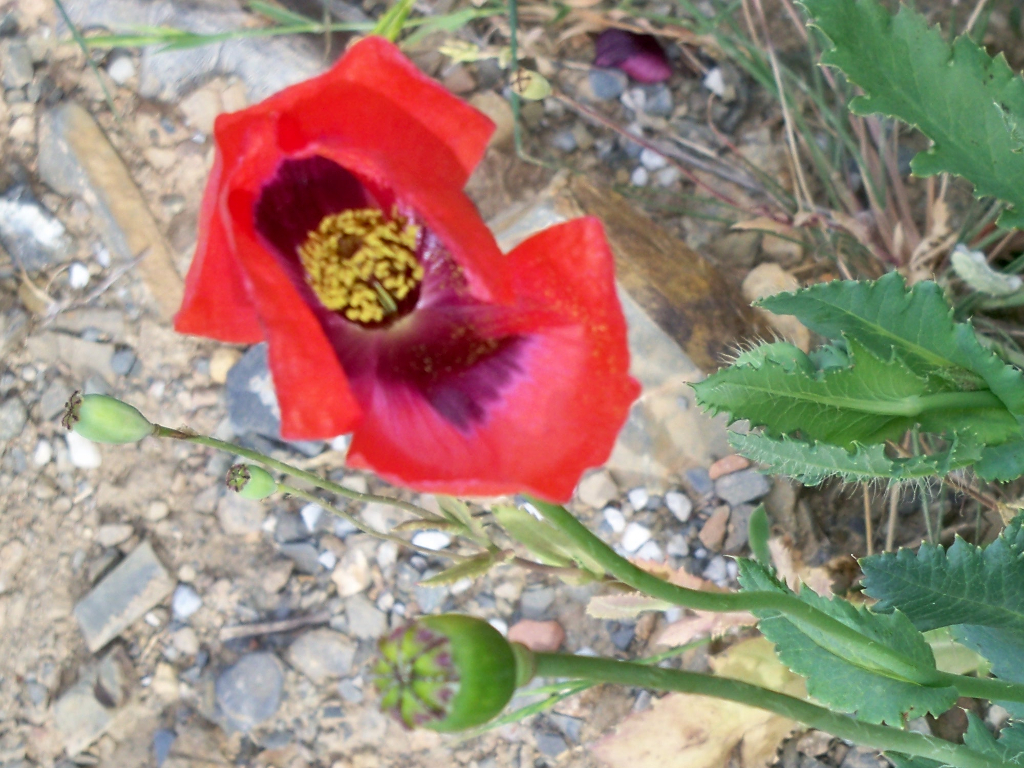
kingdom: Plantae
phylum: Tracheophyta
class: Magnoliopsida
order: Ranunculales
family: Papaveraceae
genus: Papaver
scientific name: Papaver rhoeas
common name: Corn poppy
